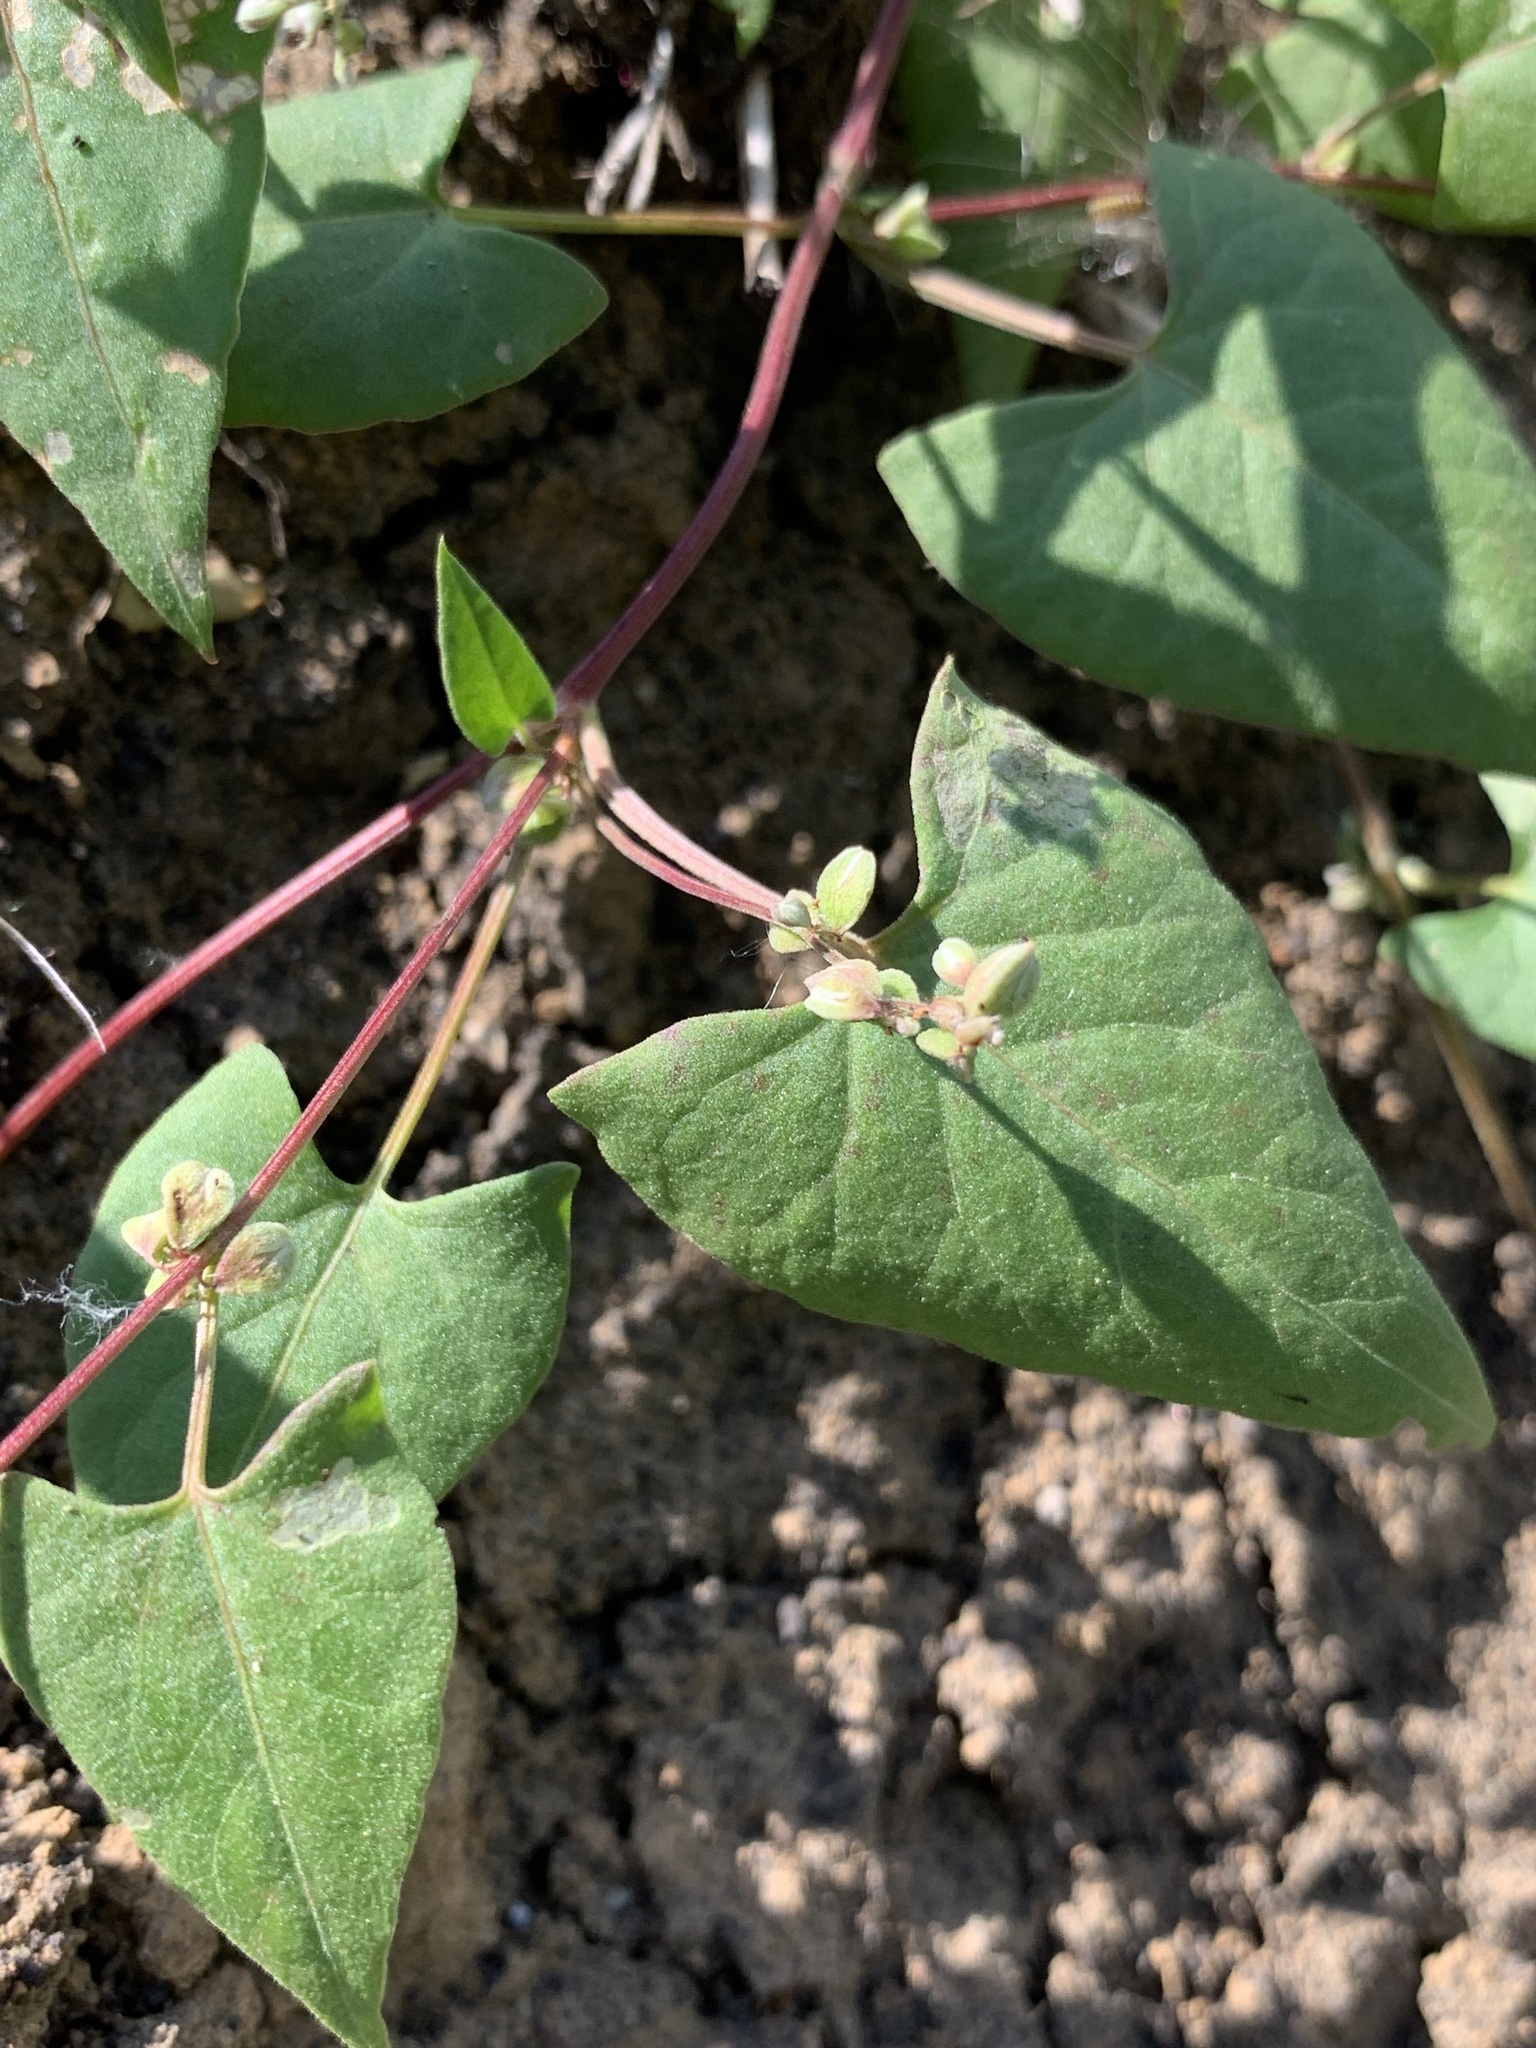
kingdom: Plantae
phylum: Tracheophyta
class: Magnoliopsida
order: Caryophyllales
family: Polygonaceae
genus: Fallopia
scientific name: Fallopia convolvulus
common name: Black bindweed
